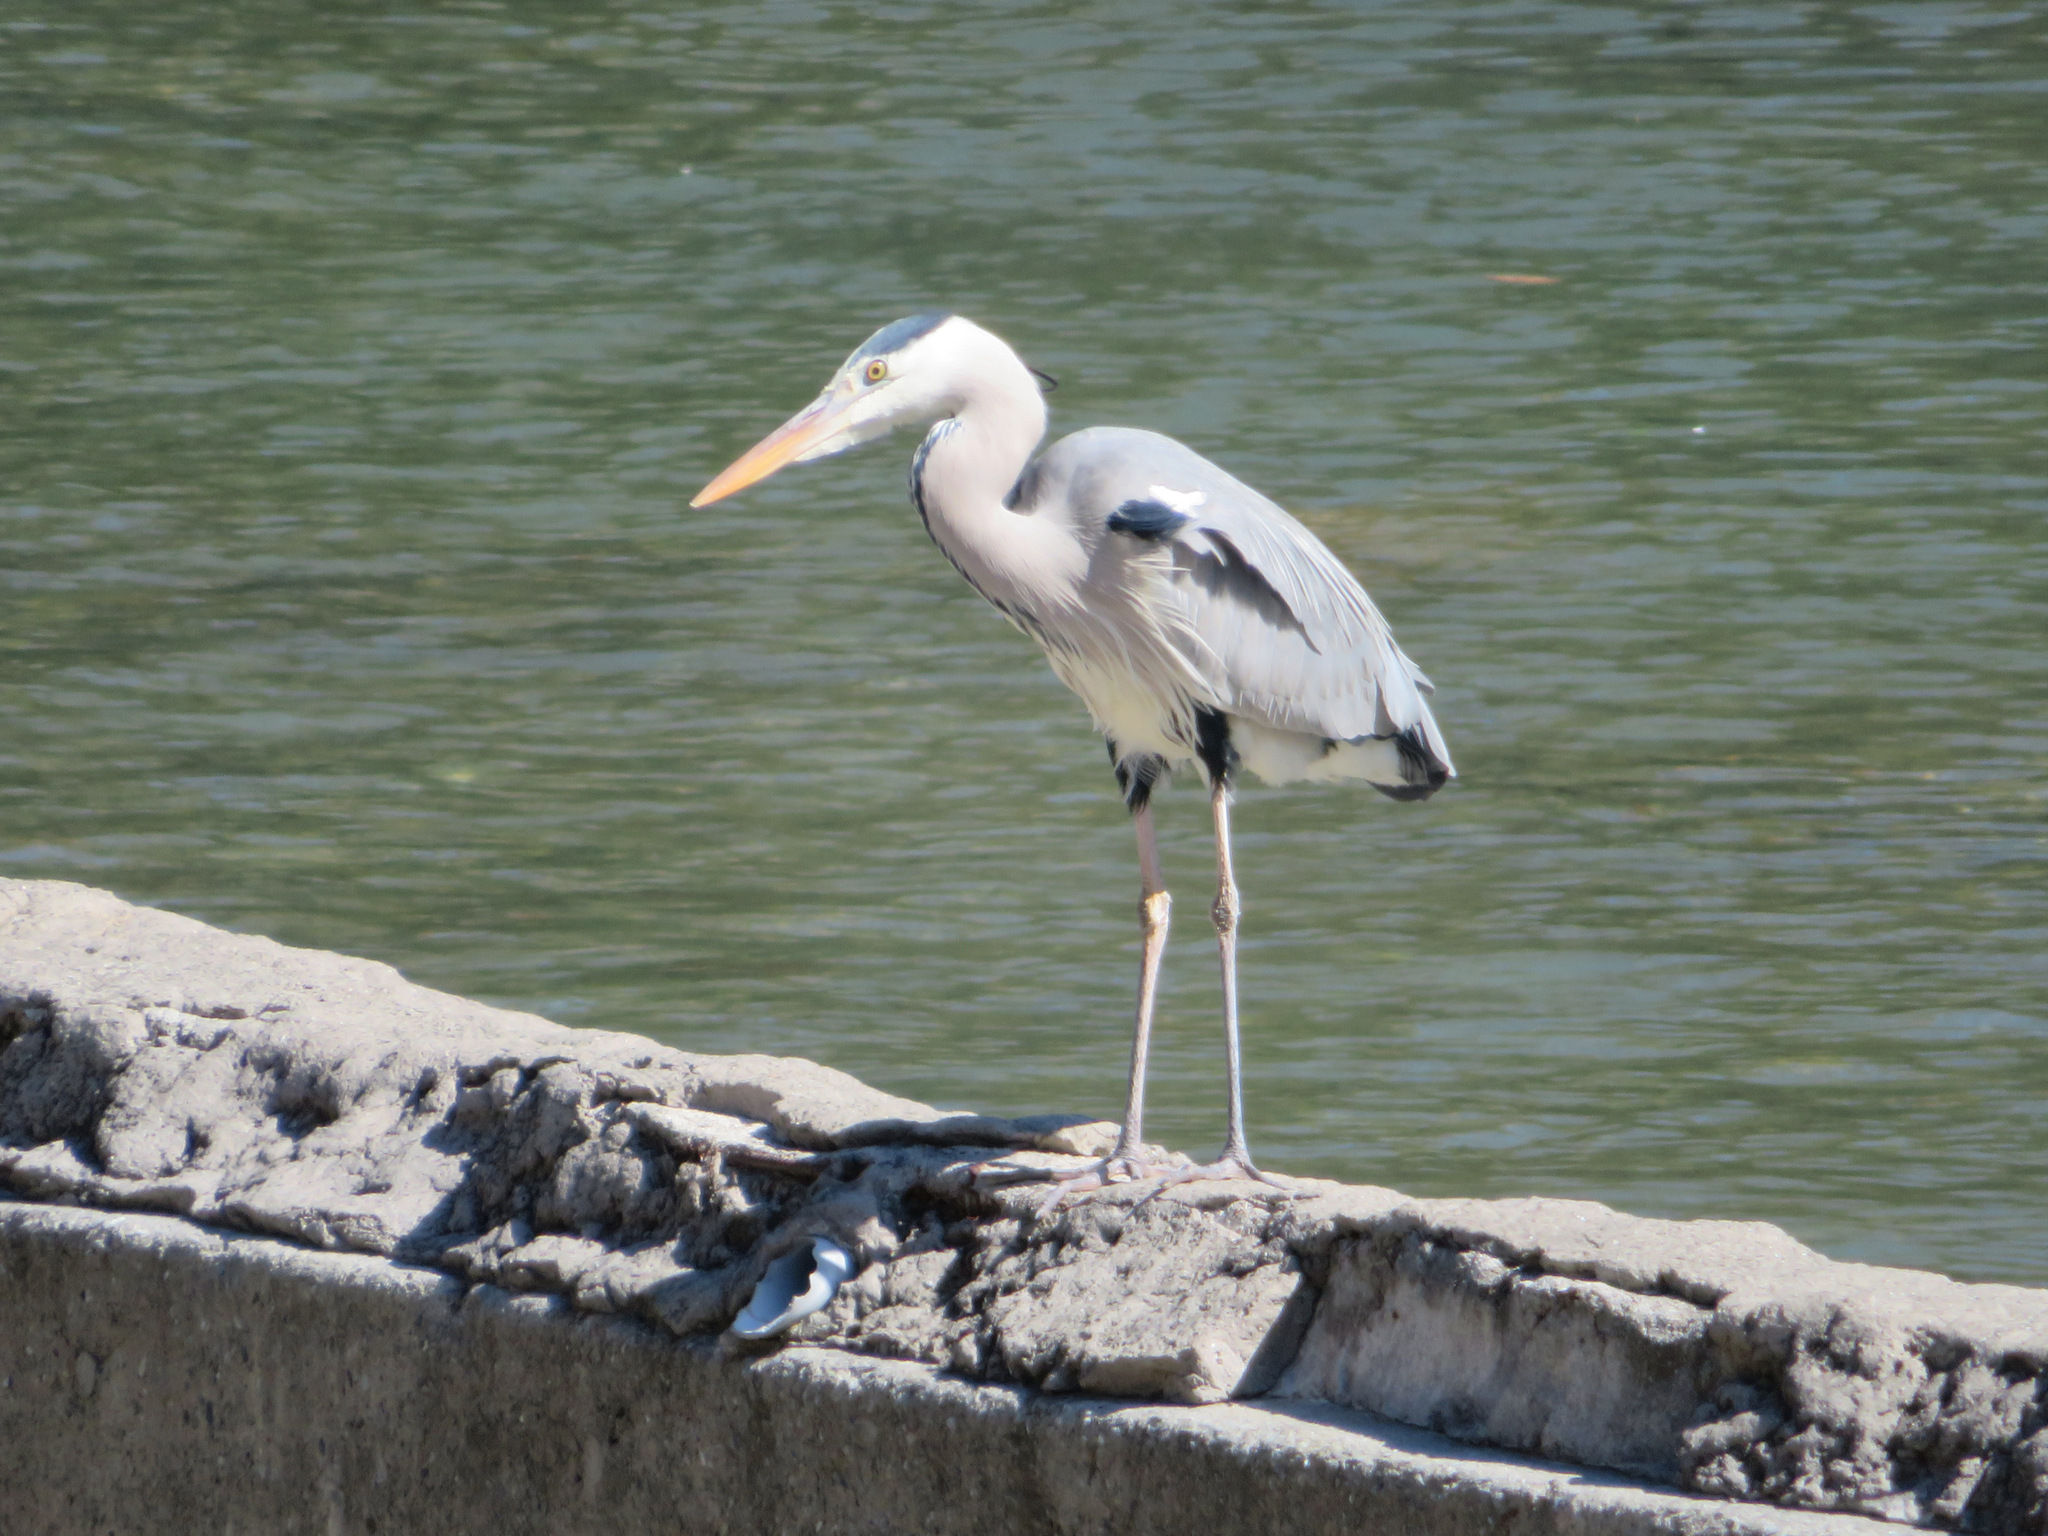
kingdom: Animalia
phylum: Chordata
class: Aves
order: Pelecaniformes
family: Ardeidae
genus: Ardea
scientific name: Ardea cinerea
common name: Grey heron
